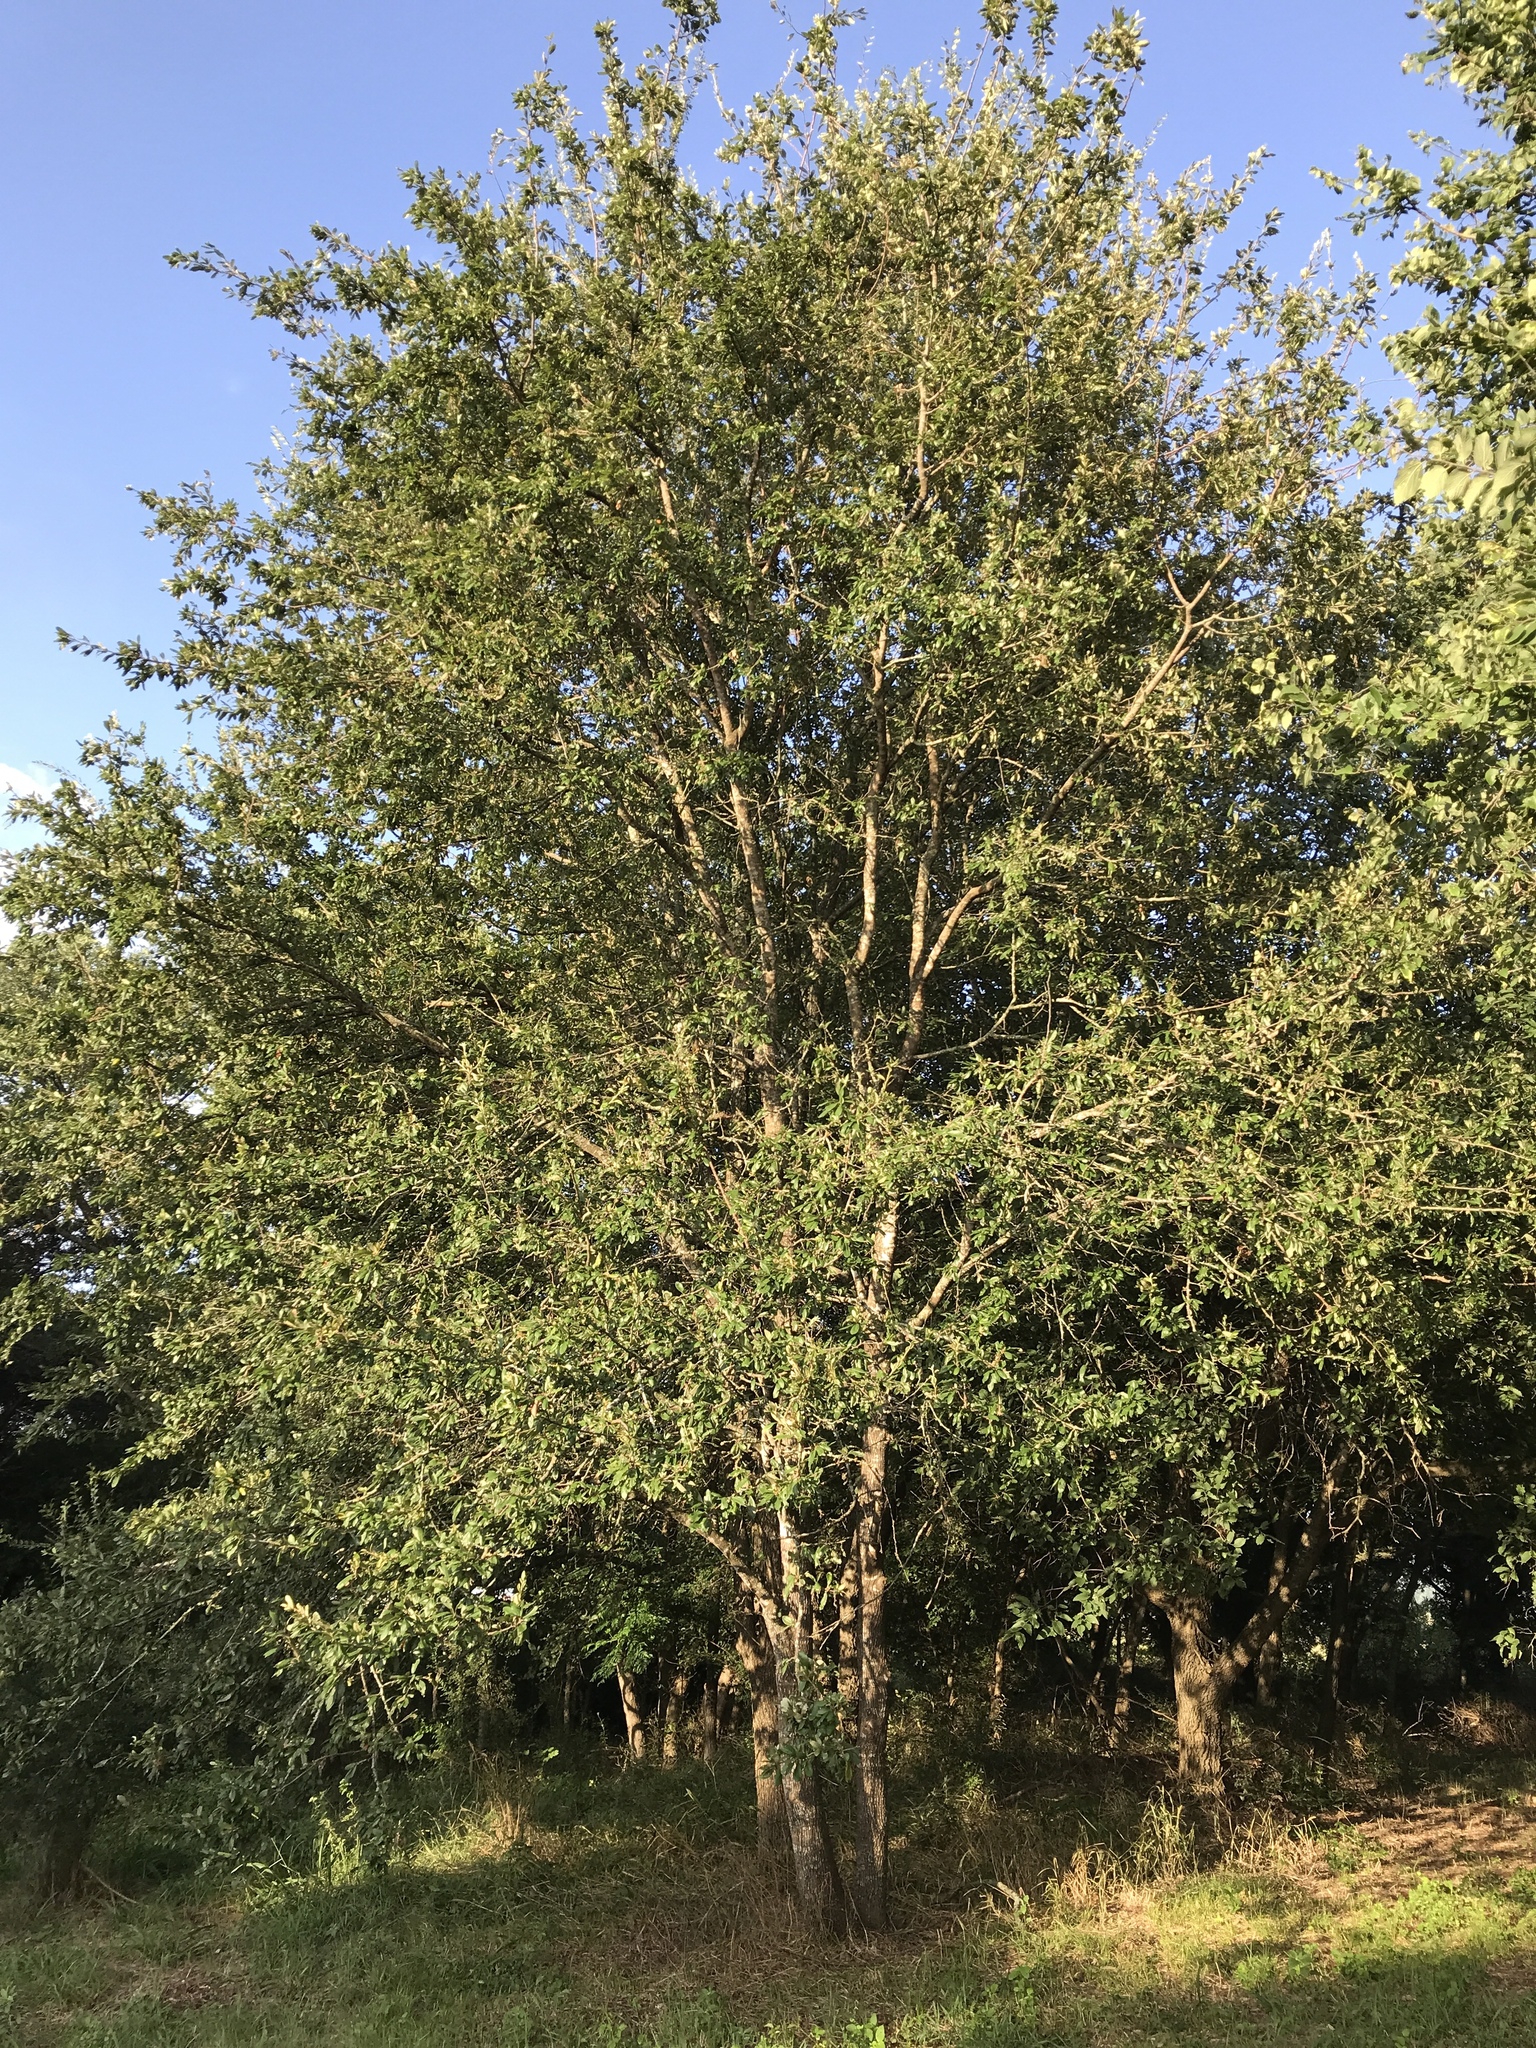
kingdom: Plantae
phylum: Tracheophyta
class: Magnoliopsida
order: Ericales
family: Sapotaceae
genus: Sideroxylon
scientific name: Sideroxylon lanuginosum
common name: Chittamwood
